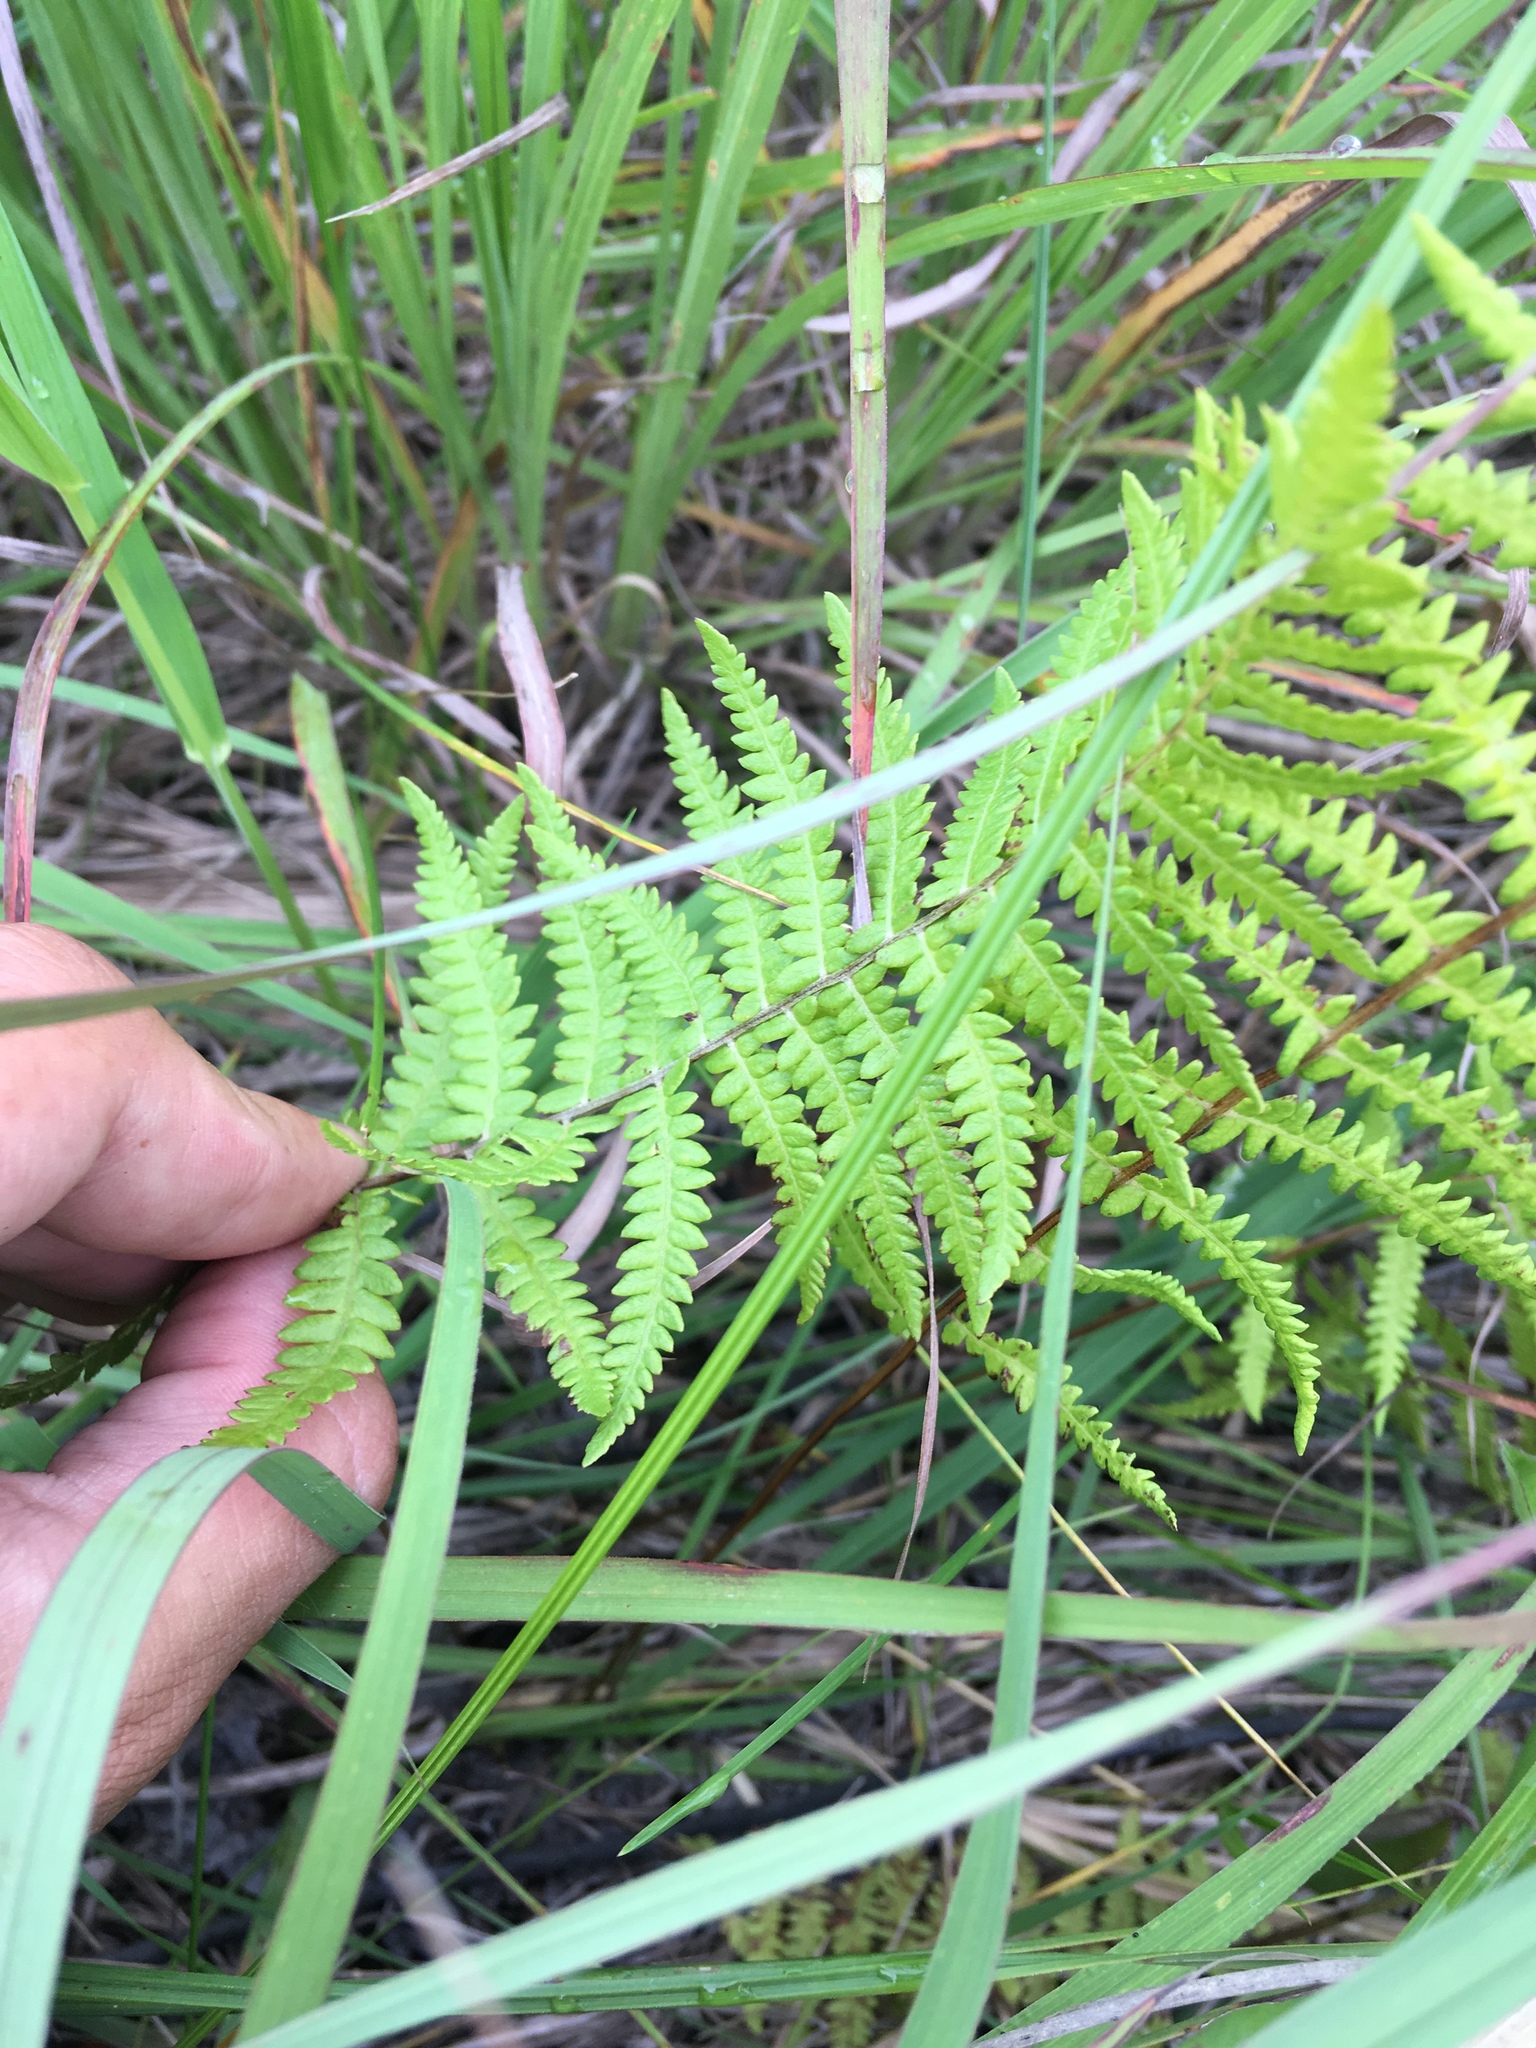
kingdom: Plantae
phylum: Tracheophyta
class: Polypodiopsida
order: Polypodiales
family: Thelypteridaceae
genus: Thelypteris
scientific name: Thelypteris palustris
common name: Marsh fern
